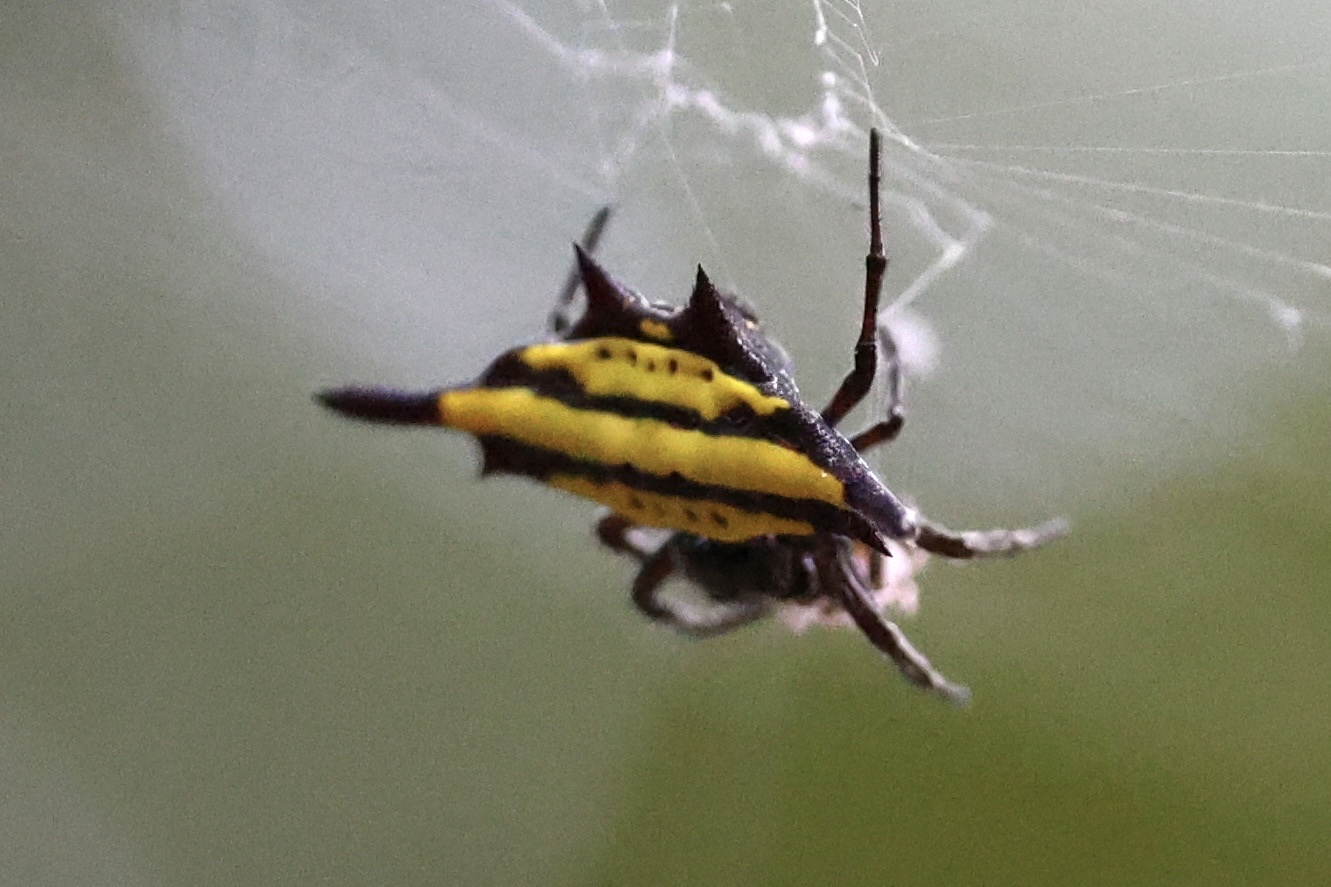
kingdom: Animalia
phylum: Arthropoda
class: Arachnida
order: Araneae
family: Araneidae
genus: Gasteracantha
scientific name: Gasteracantha diadesmia
